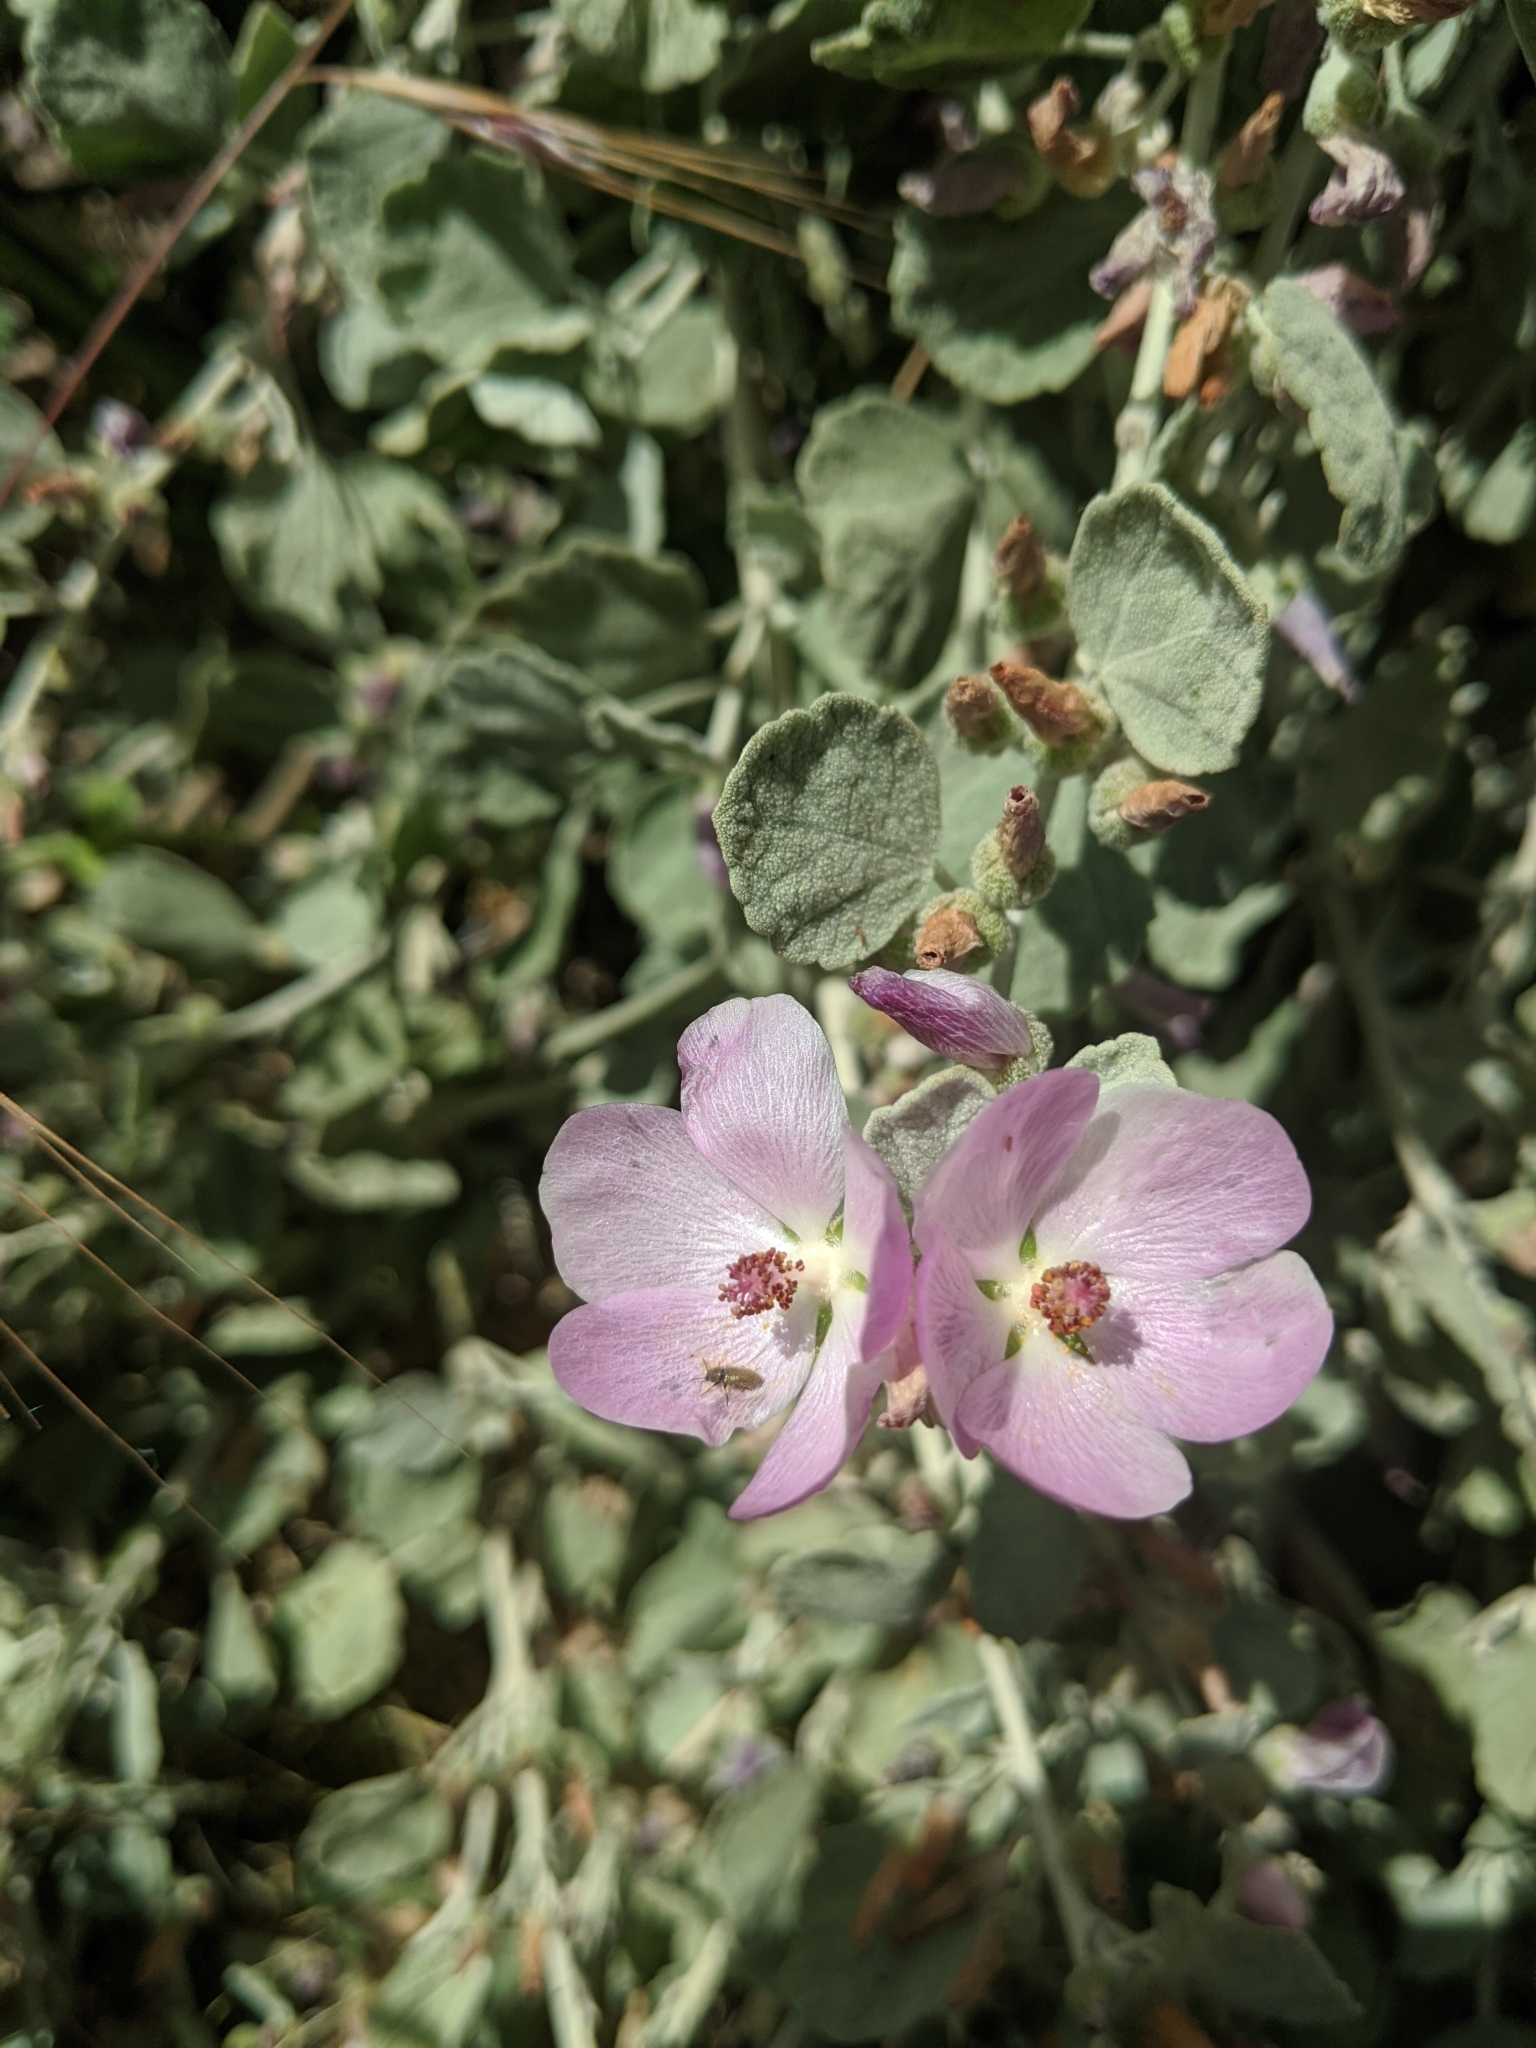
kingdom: Plantae
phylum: Tracheophyta
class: Magnoliopsida
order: Malvales
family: Malvaceae
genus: Malacothamnus
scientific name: Malacothamnus jonesii
